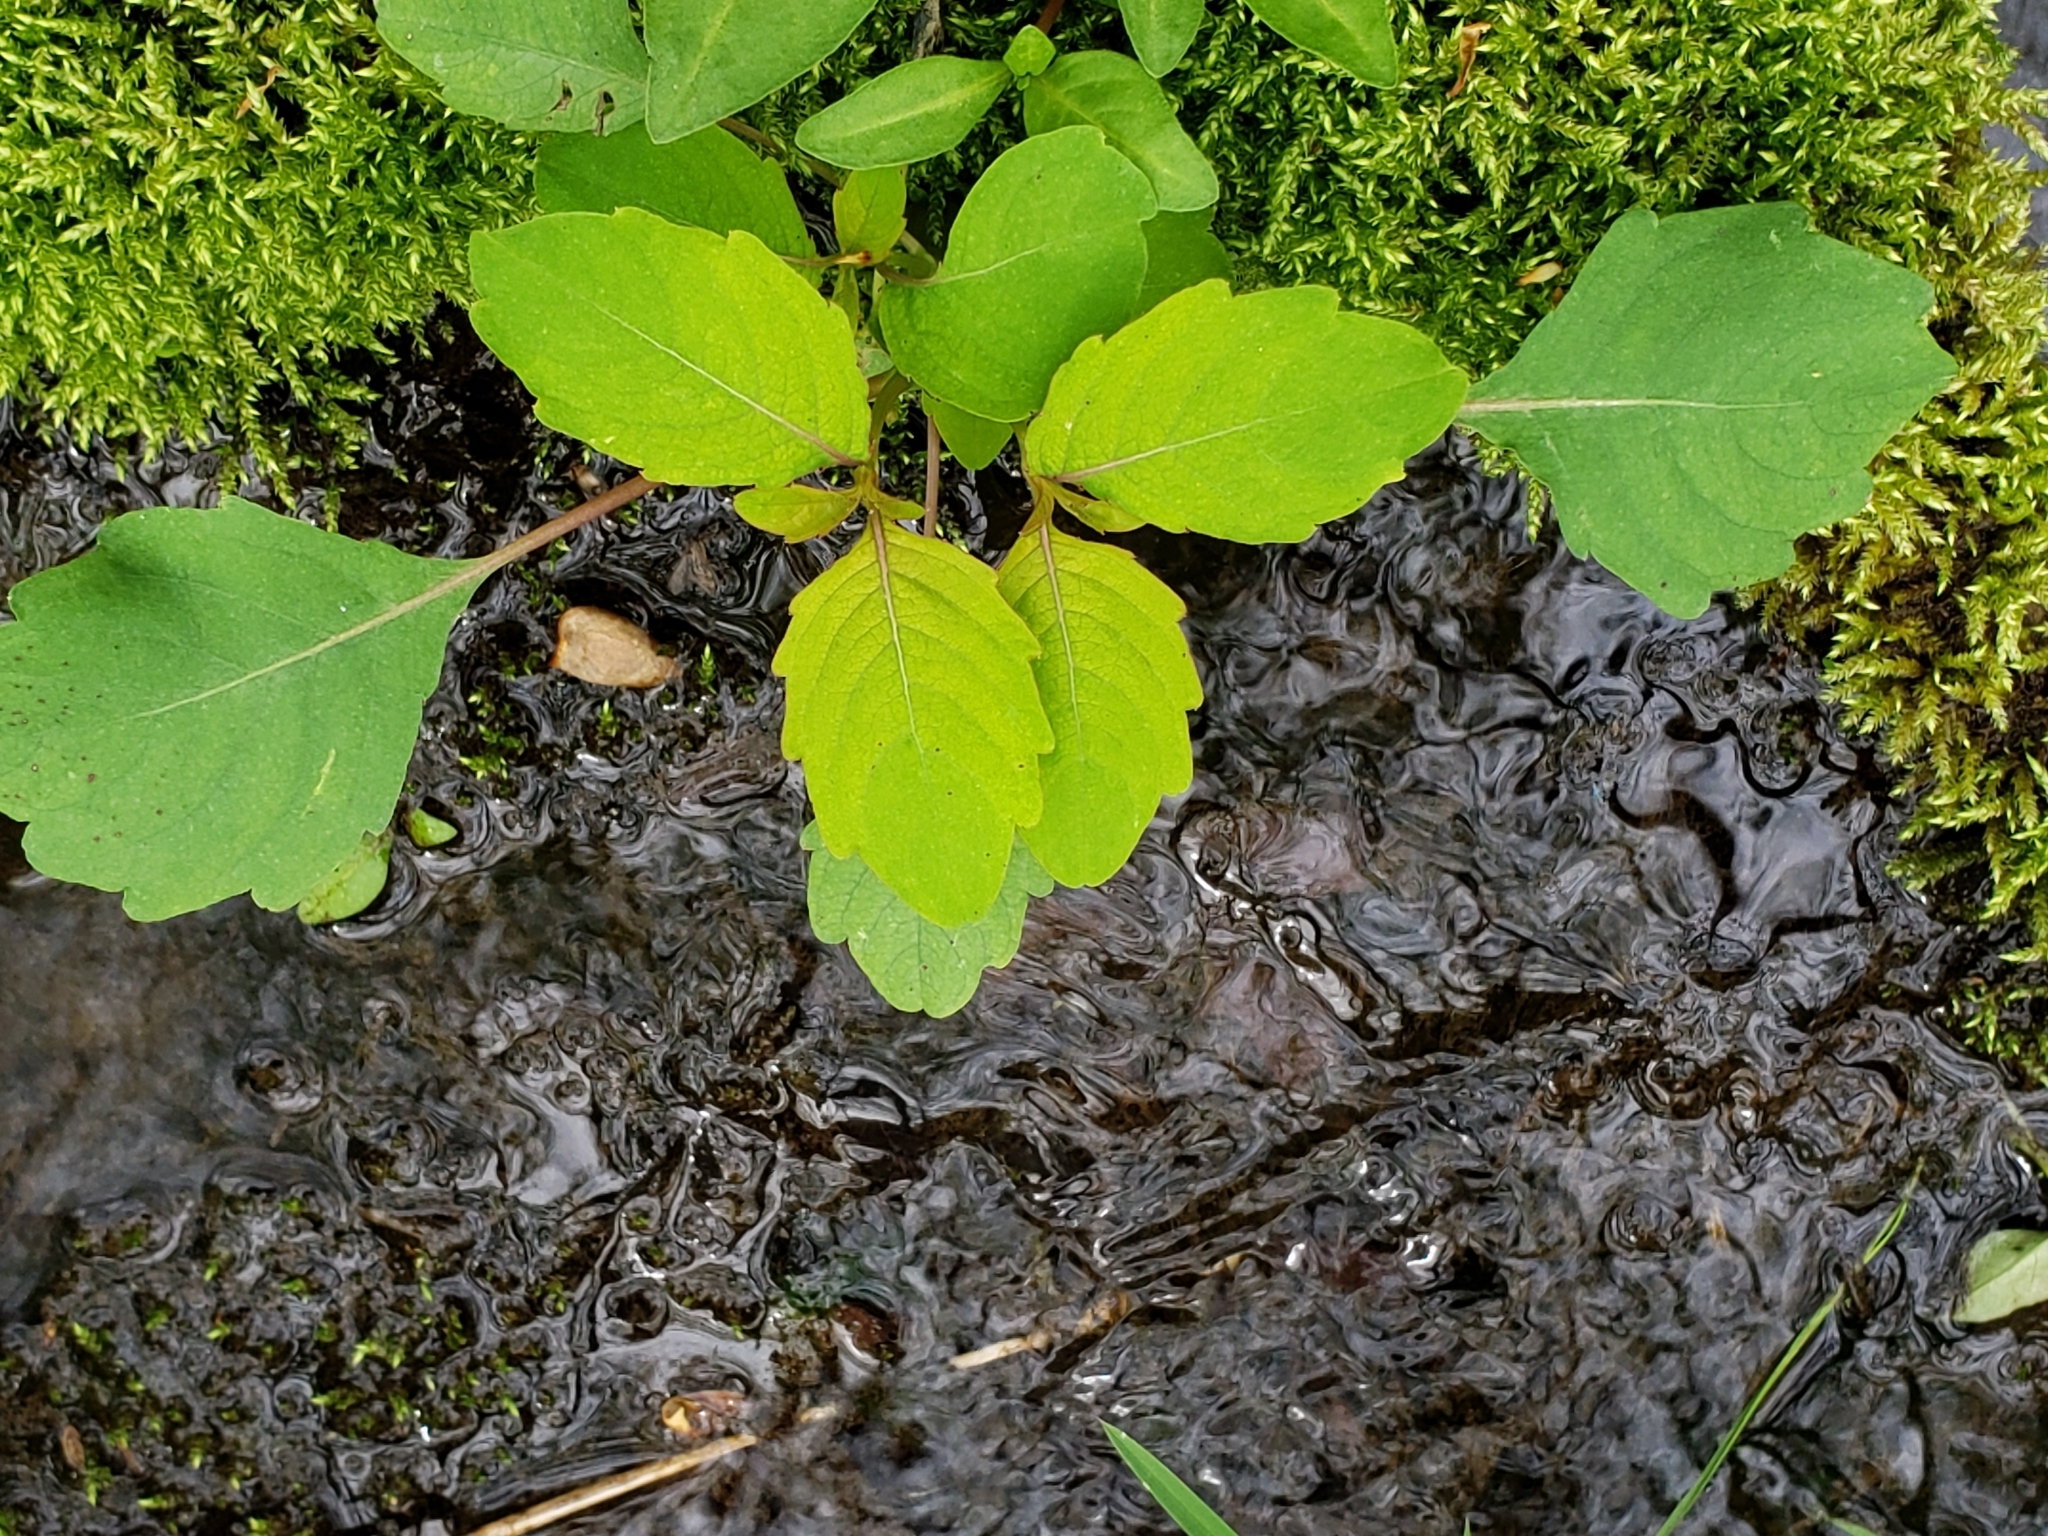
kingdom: Plantae
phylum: Tracheophyta
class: Magnoliopsida
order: Ericales
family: Balsaminaceae
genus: Impatiens
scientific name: Impatiens capensis
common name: Orange balsam
